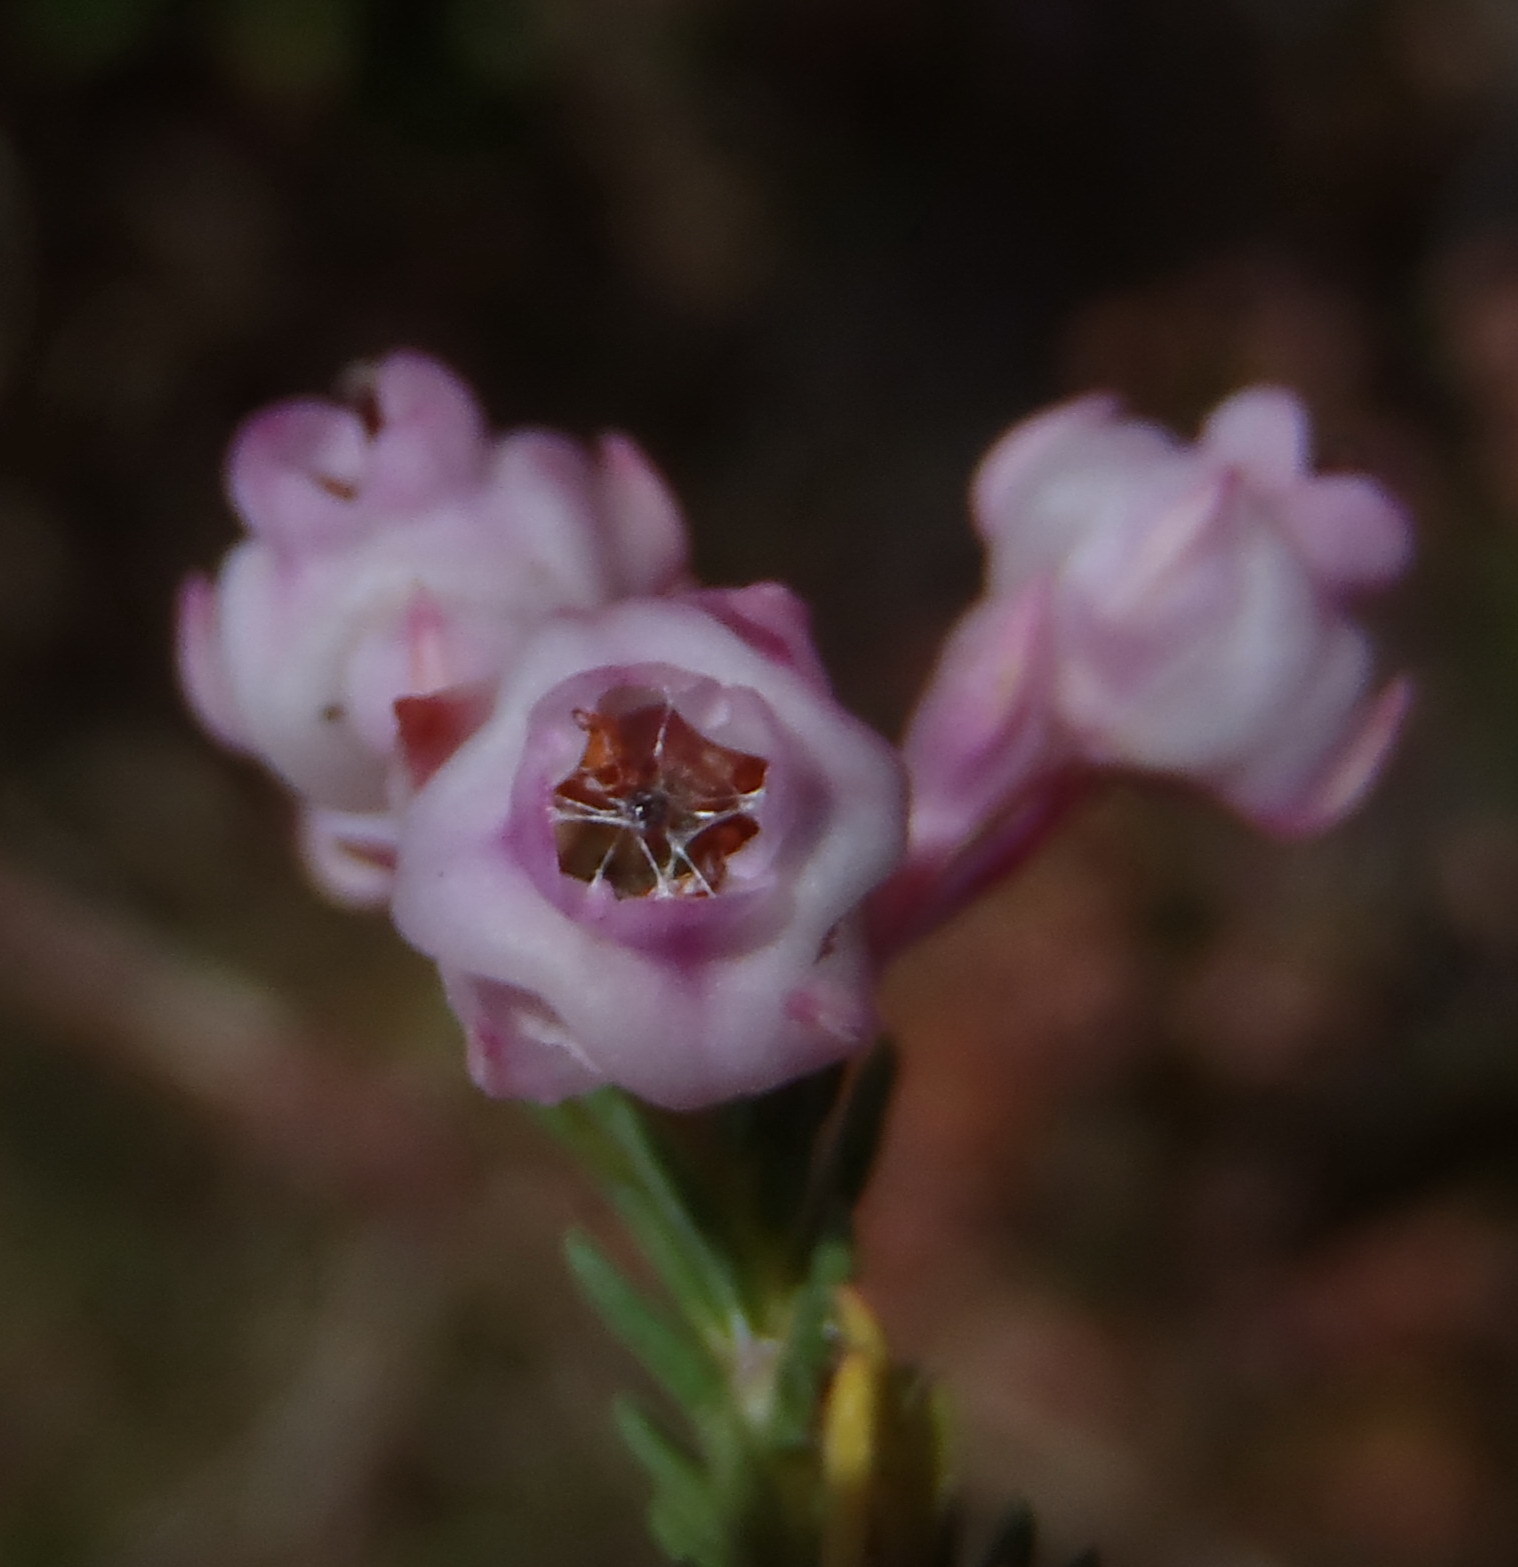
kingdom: Plantae
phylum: Tracheophyta
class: Magnoliopsida
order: Ericales
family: Ericaceae
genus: Erica
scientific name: Erica baccans
